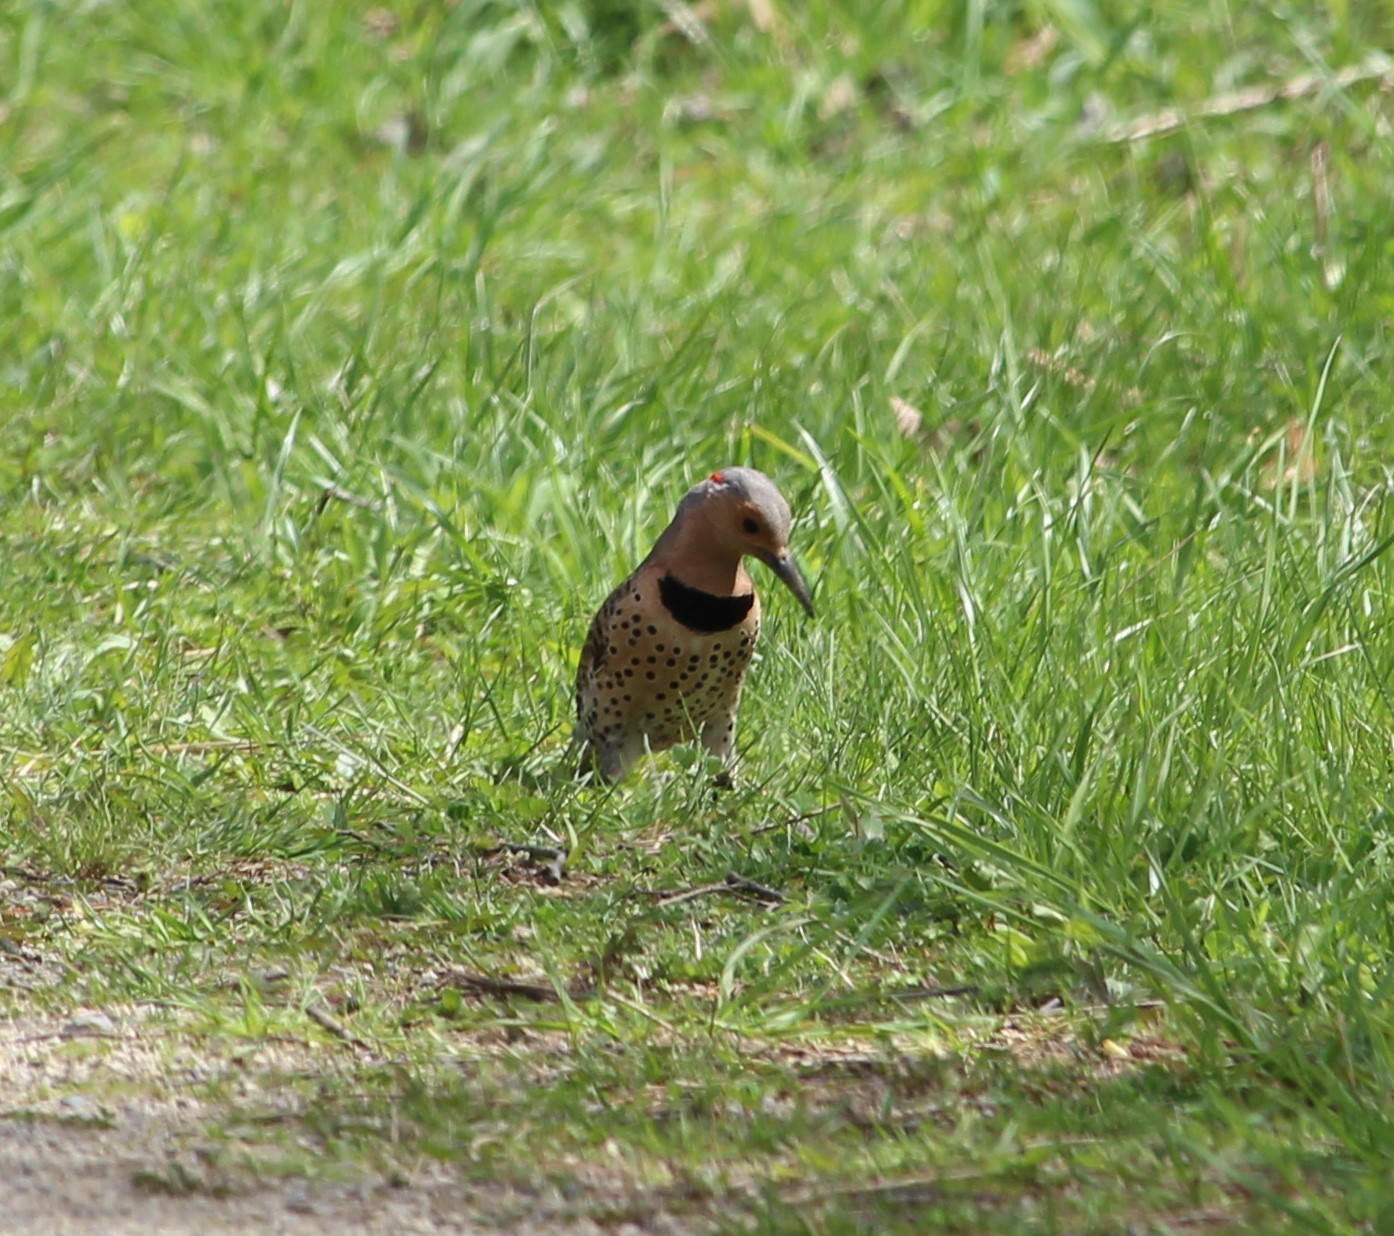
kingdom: Animalia
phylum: Chordata
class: Aves
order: Piciformes
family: Picidae
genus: Colaptes
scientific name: Colaptes auratus
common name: Northern flicker
